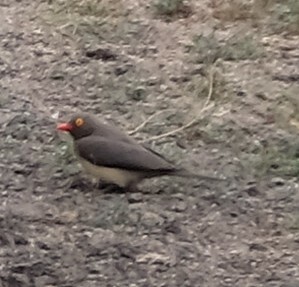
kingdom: Animalia
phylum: Chordata
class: Aves
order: Passeriformes
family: Buphagidae
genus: Buphagus
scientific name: Buphagus erythrorhynchus
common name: Red-billed oxpecker
